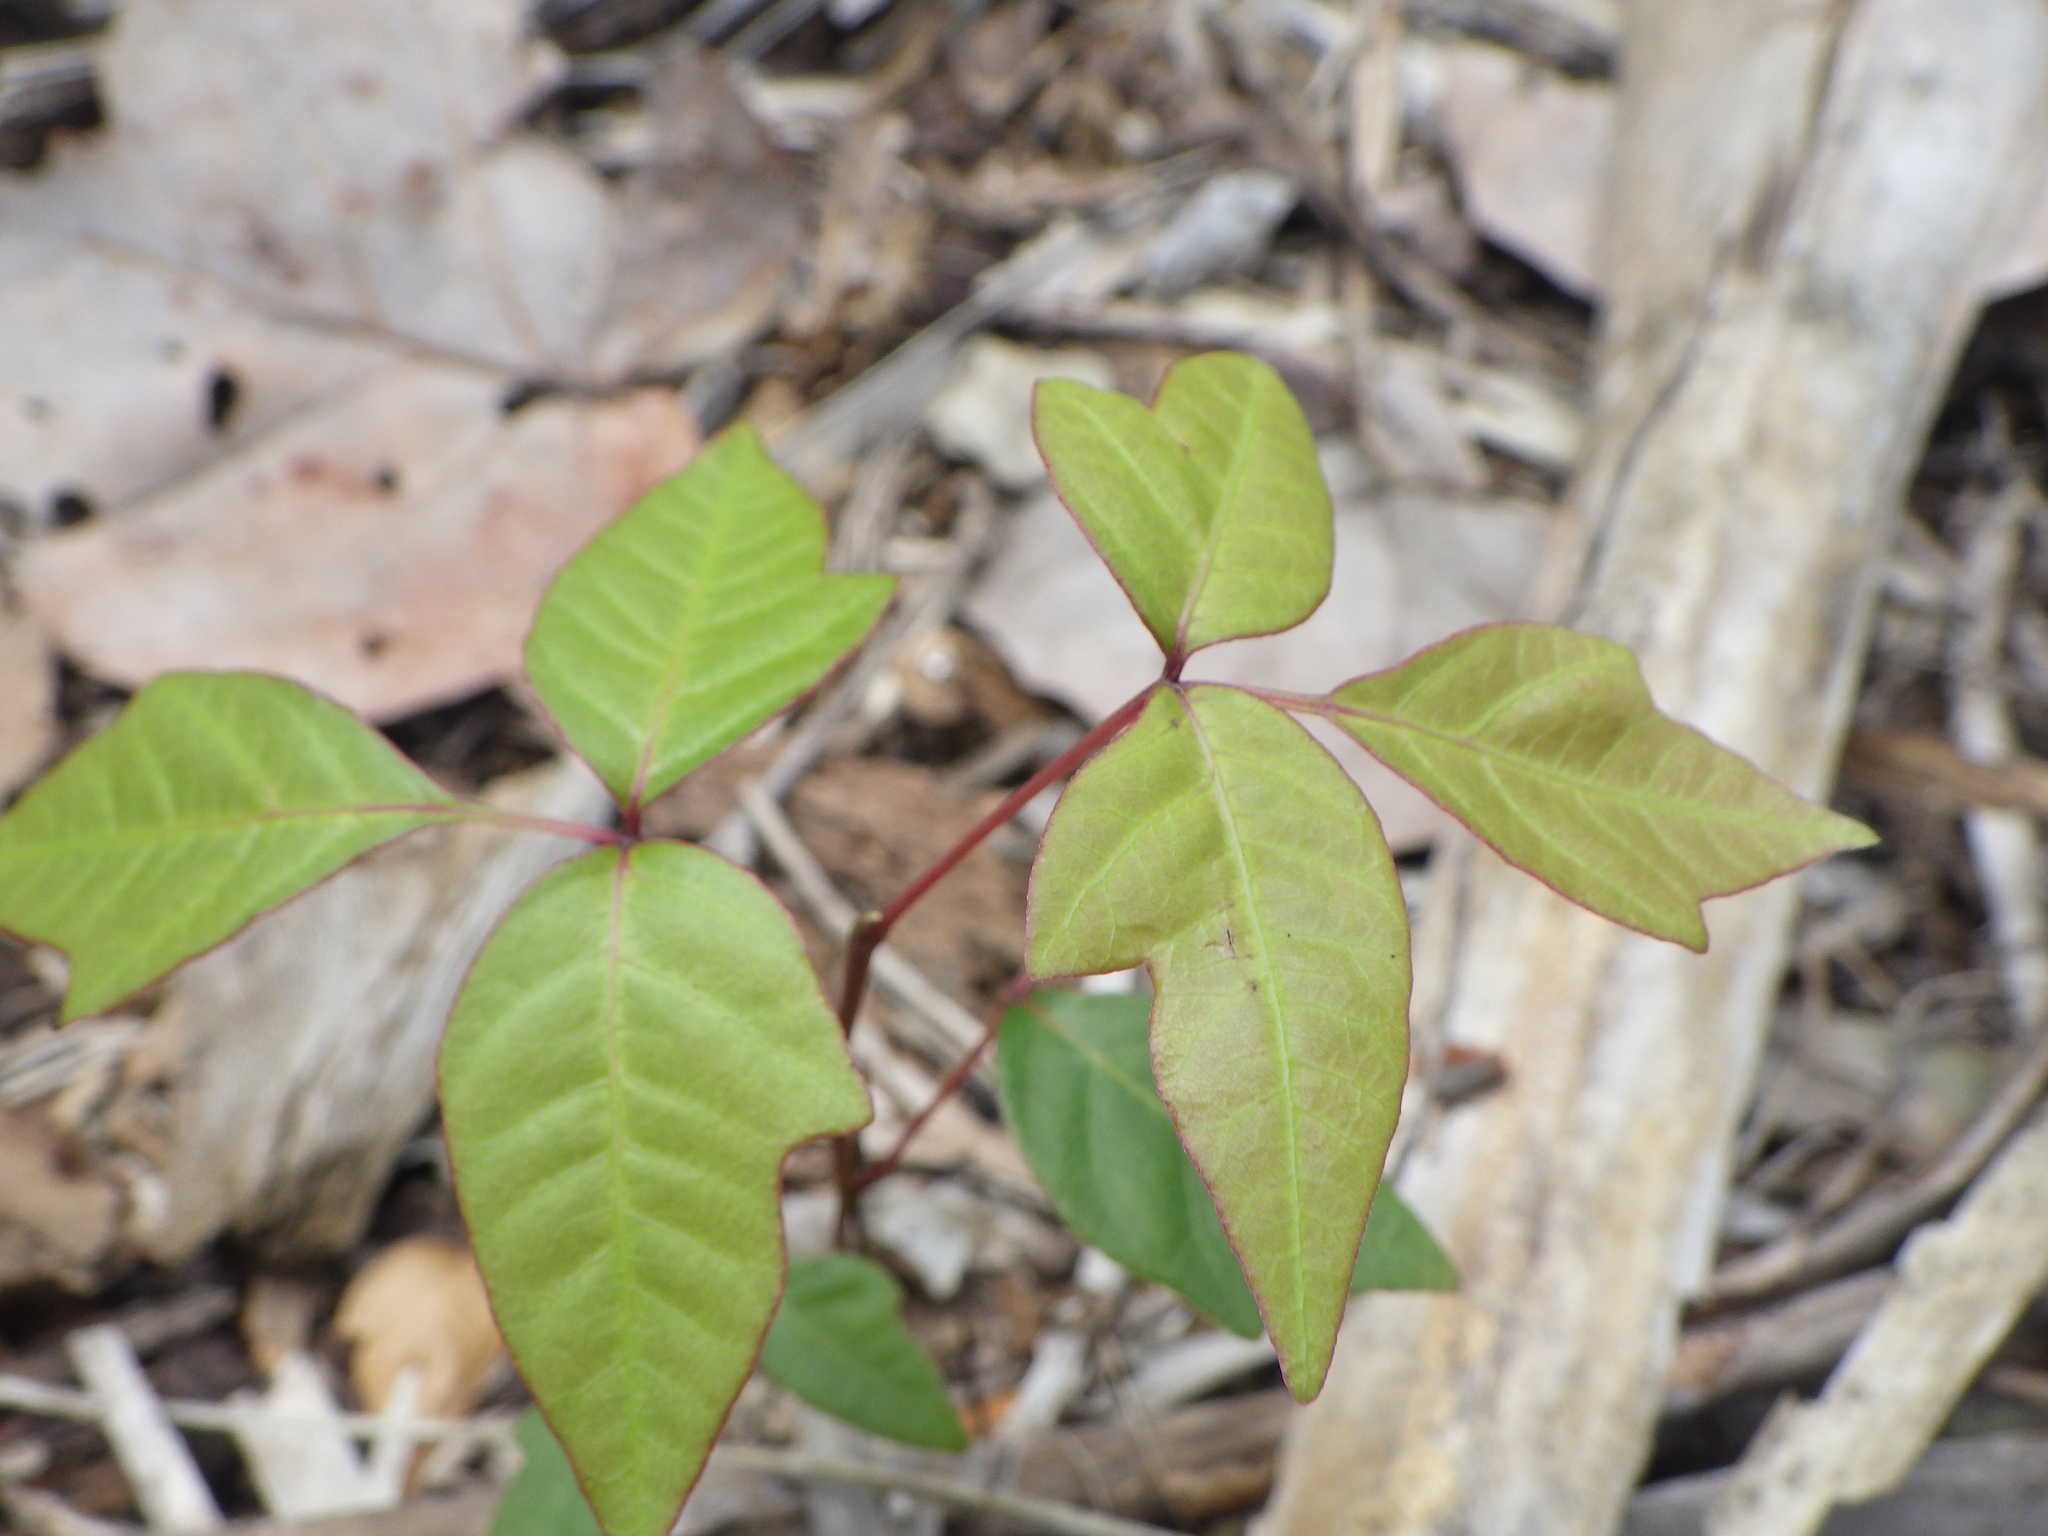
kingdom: Plantae
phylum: Tracheophyta
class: Magnoliopsida
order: Sapindales
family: Anacardiaceae
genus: Toxicodendron
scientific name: Toxicodendron radicans
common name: Poison ivy
